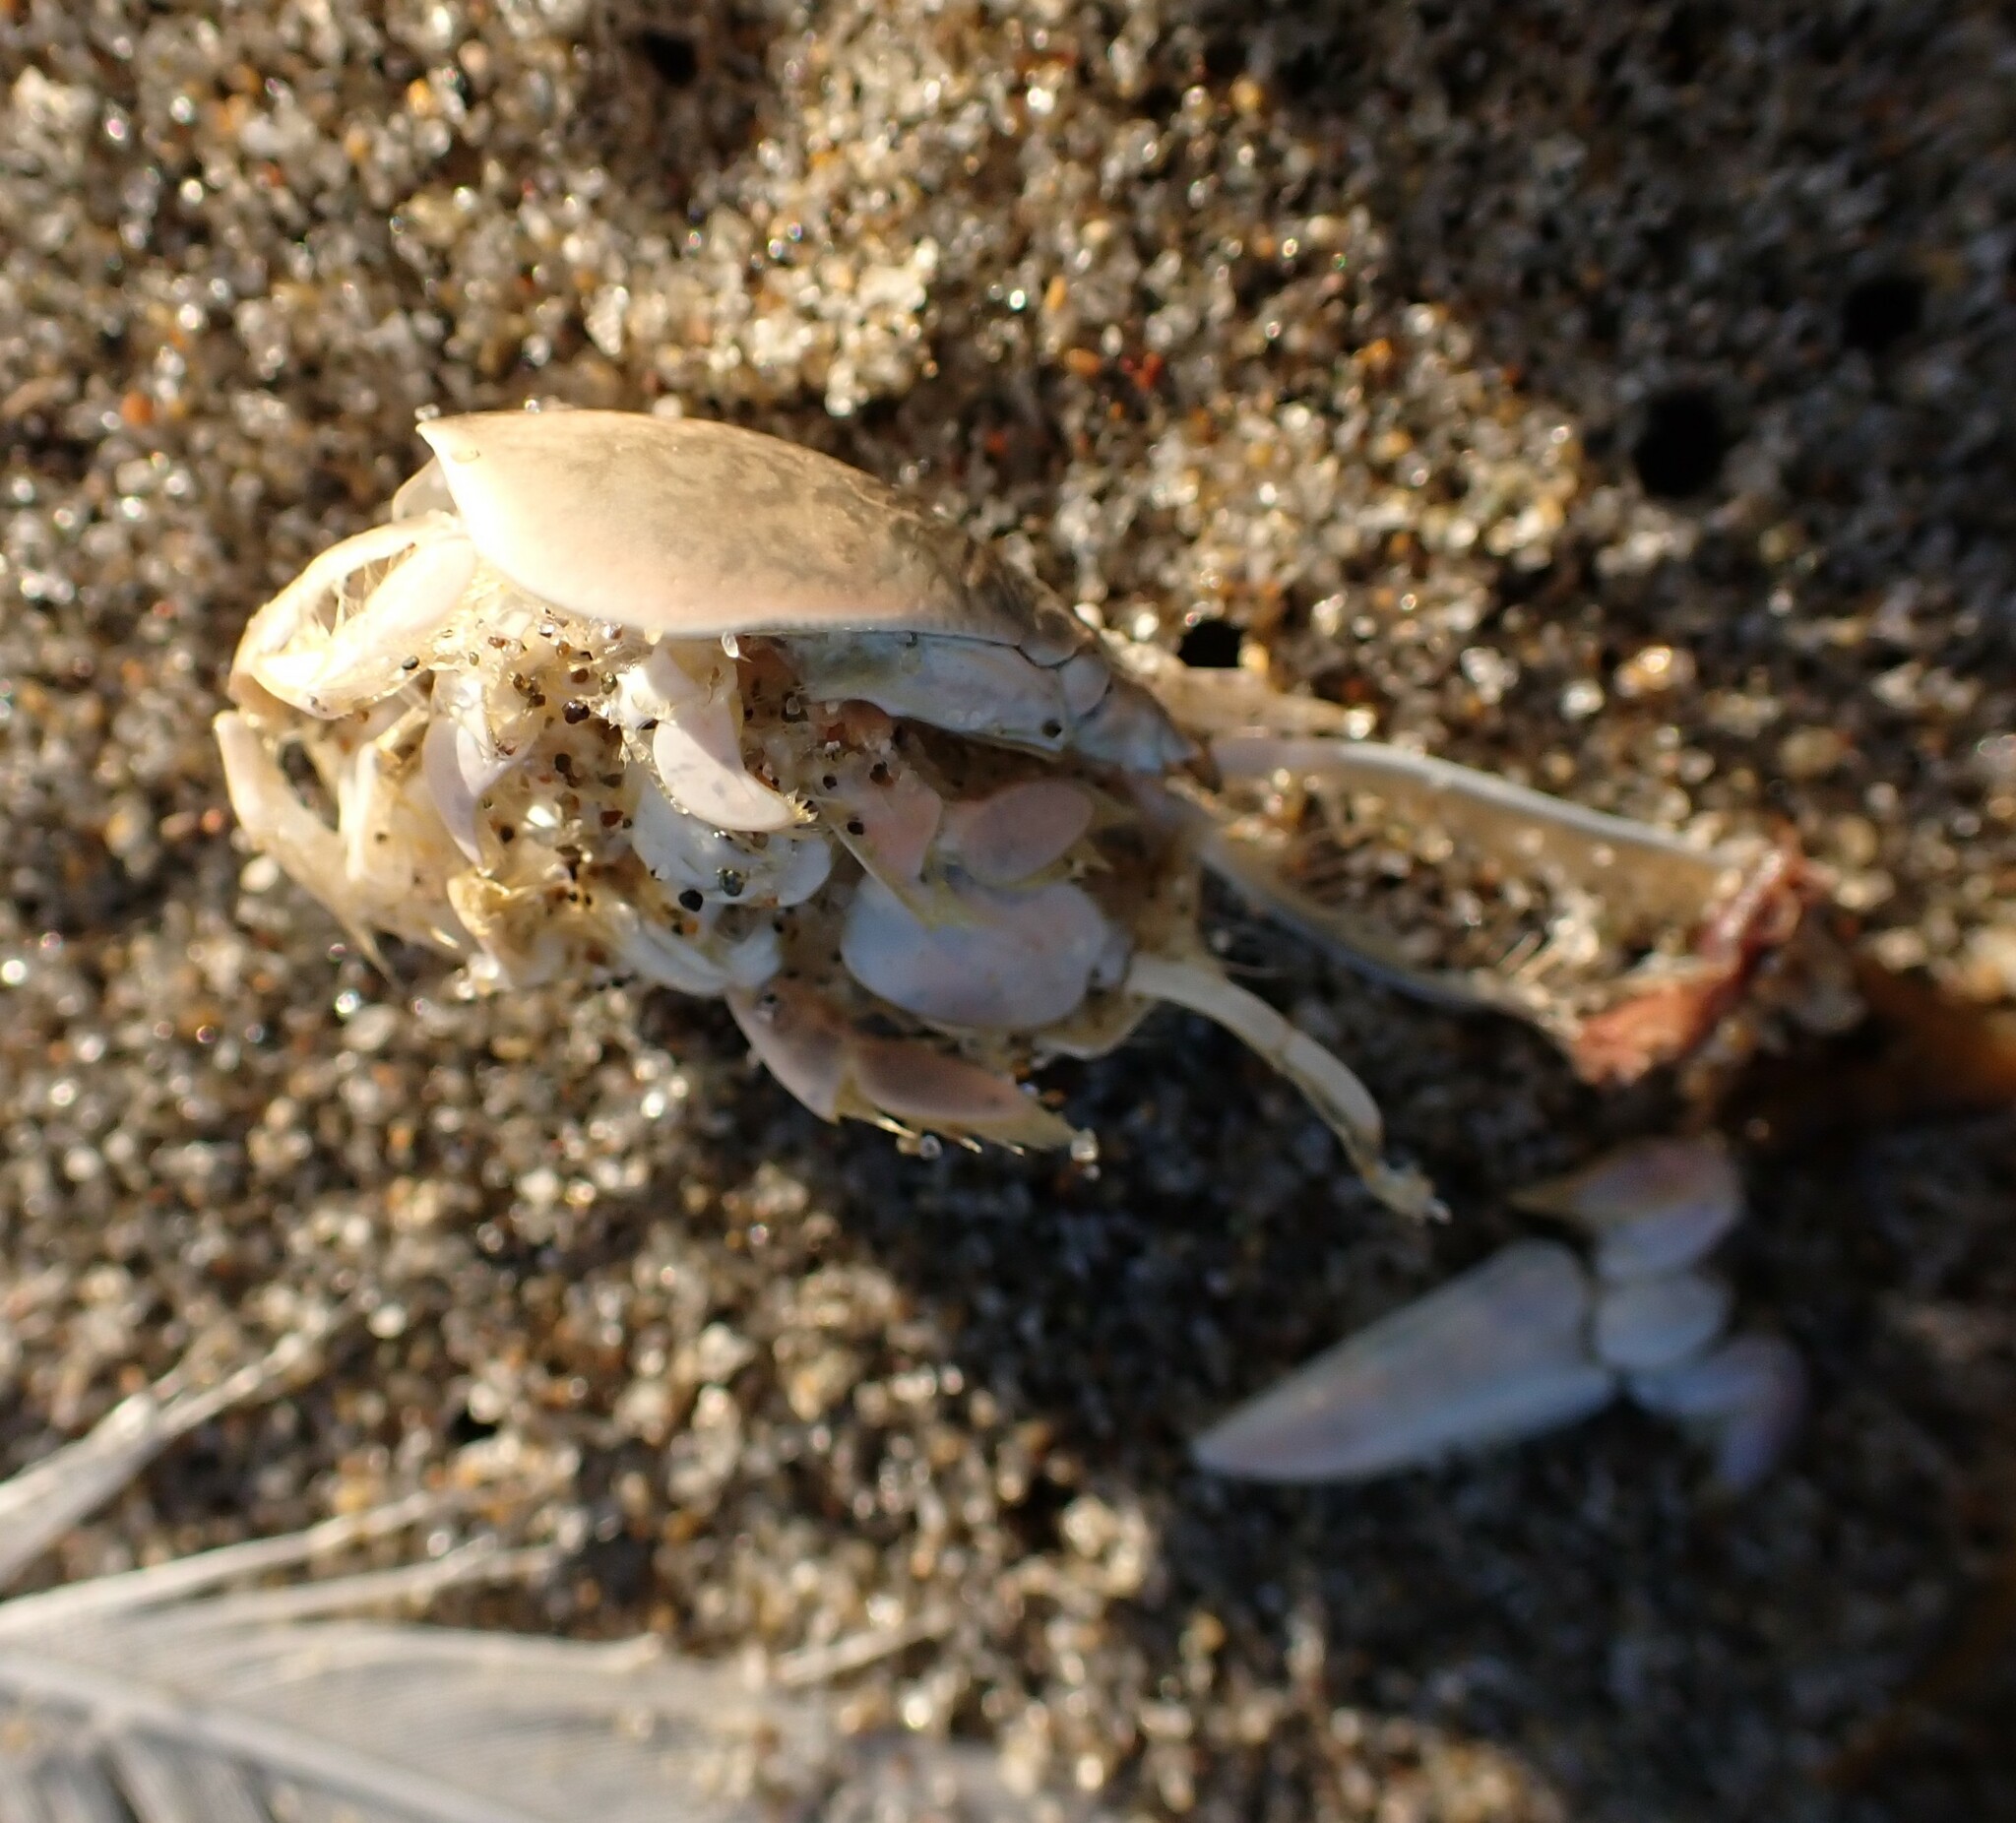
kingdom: Animalia
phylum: Arthropoda
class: Malacostraca
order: Decapoda
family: Hippidae
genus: Emerita
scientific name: Emerita analoga
